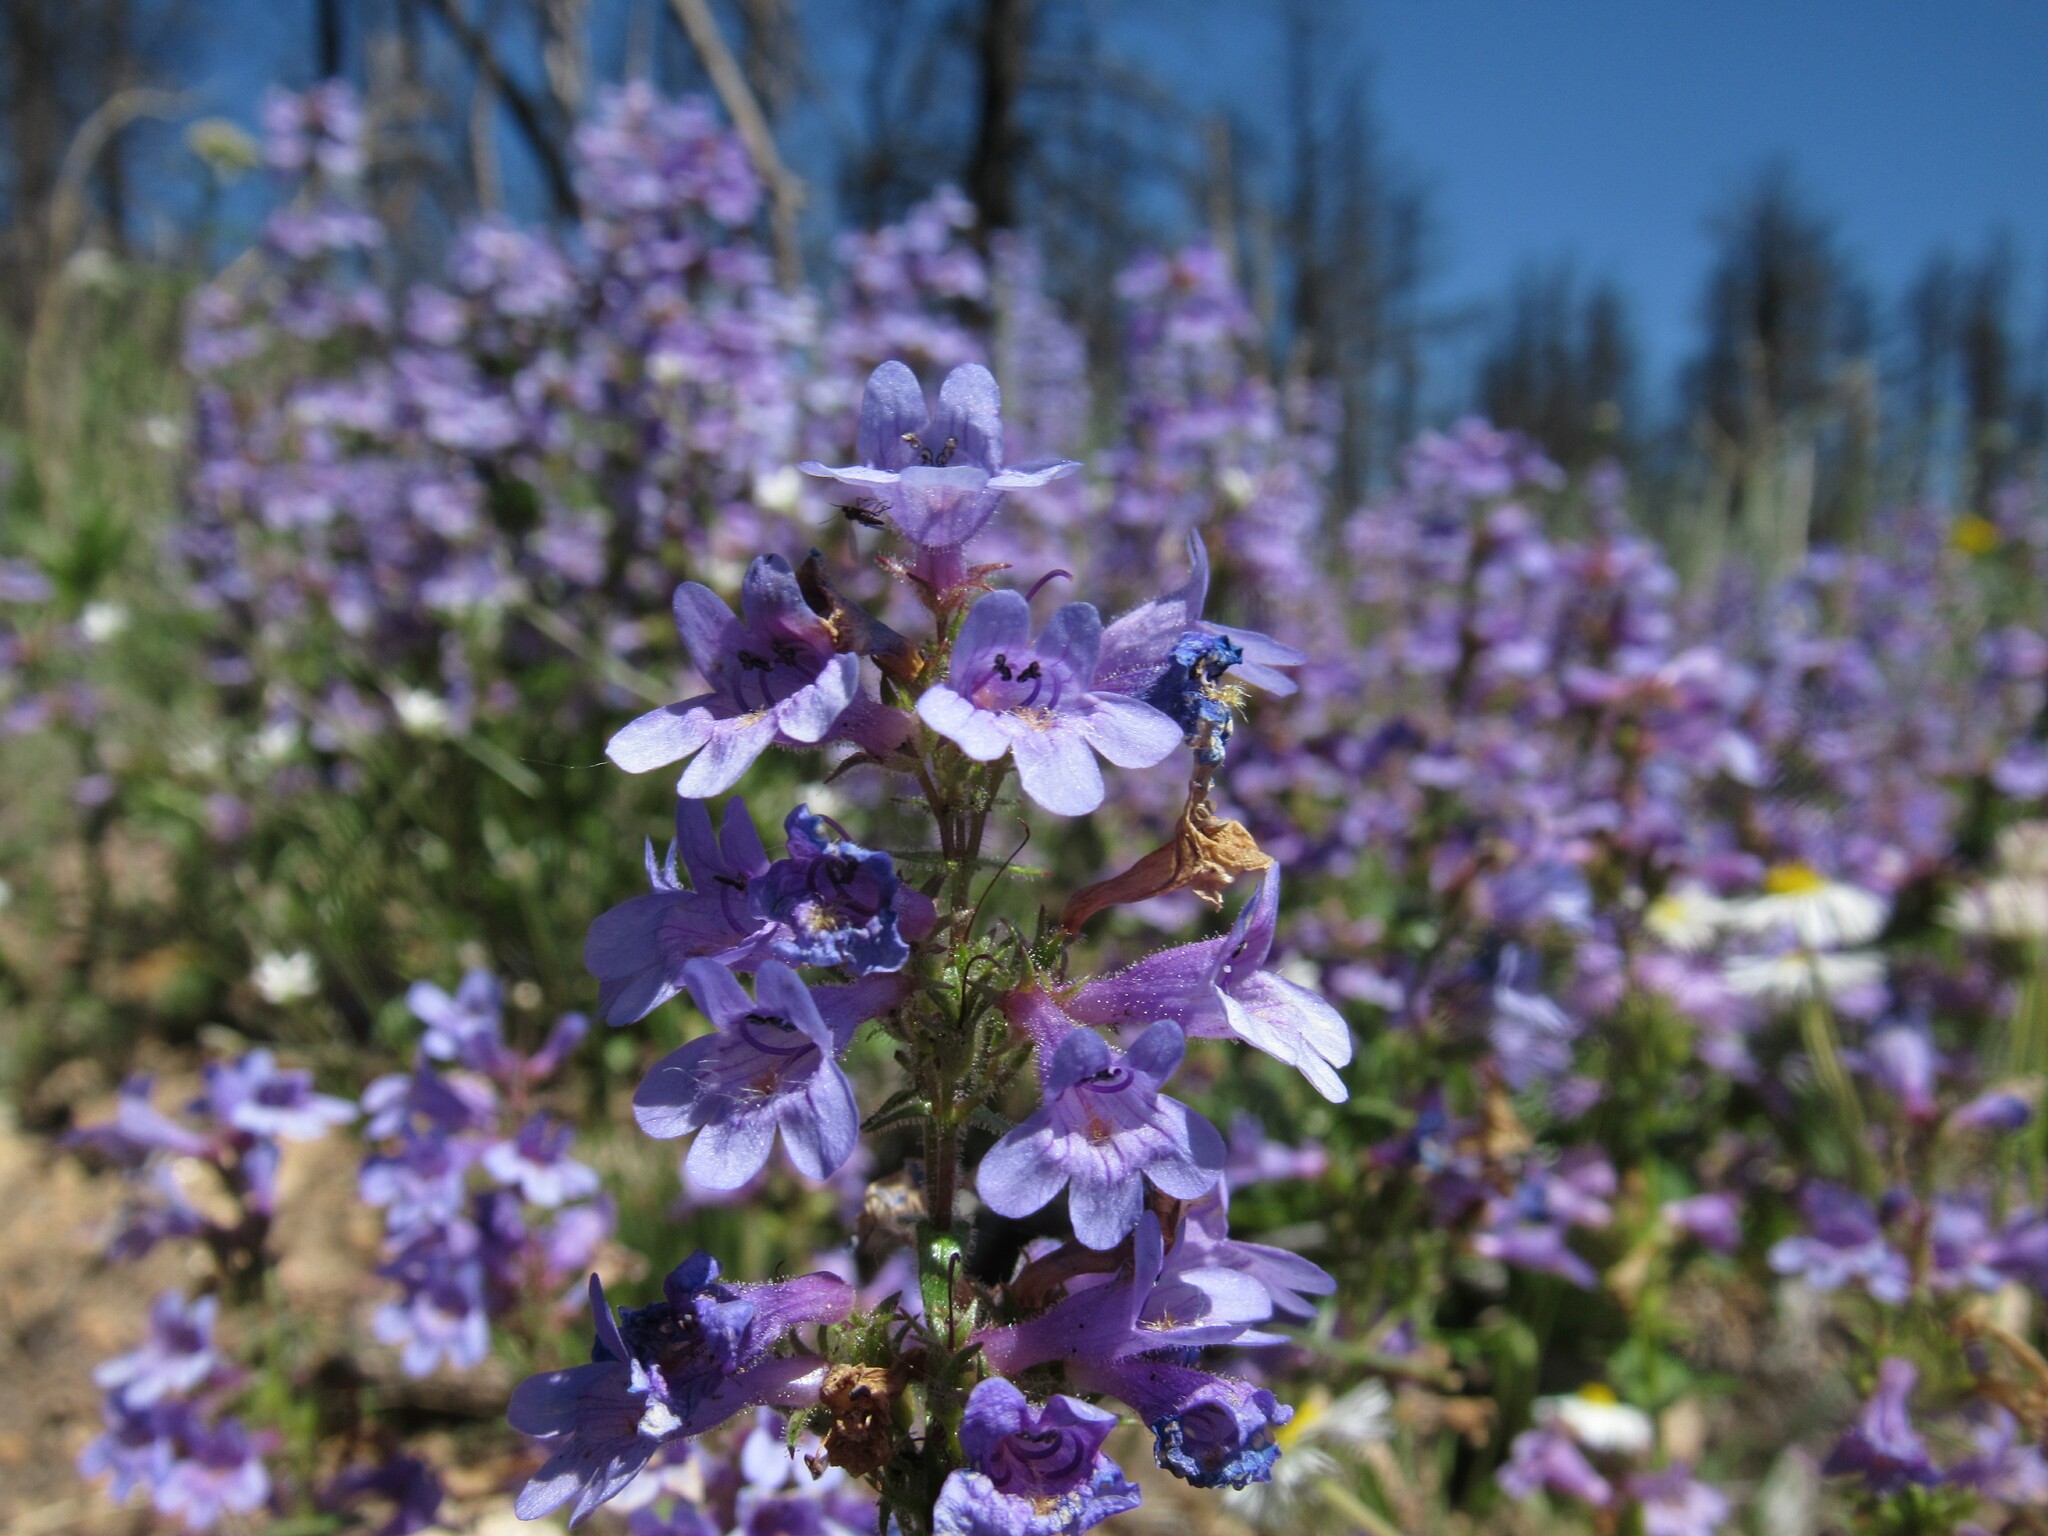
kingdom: Plantae
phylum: Tracheophyta
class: Magnoliopsida
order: Lamiales
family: Plantaginaceae
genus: Penstemon
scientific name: Penstemon virens
